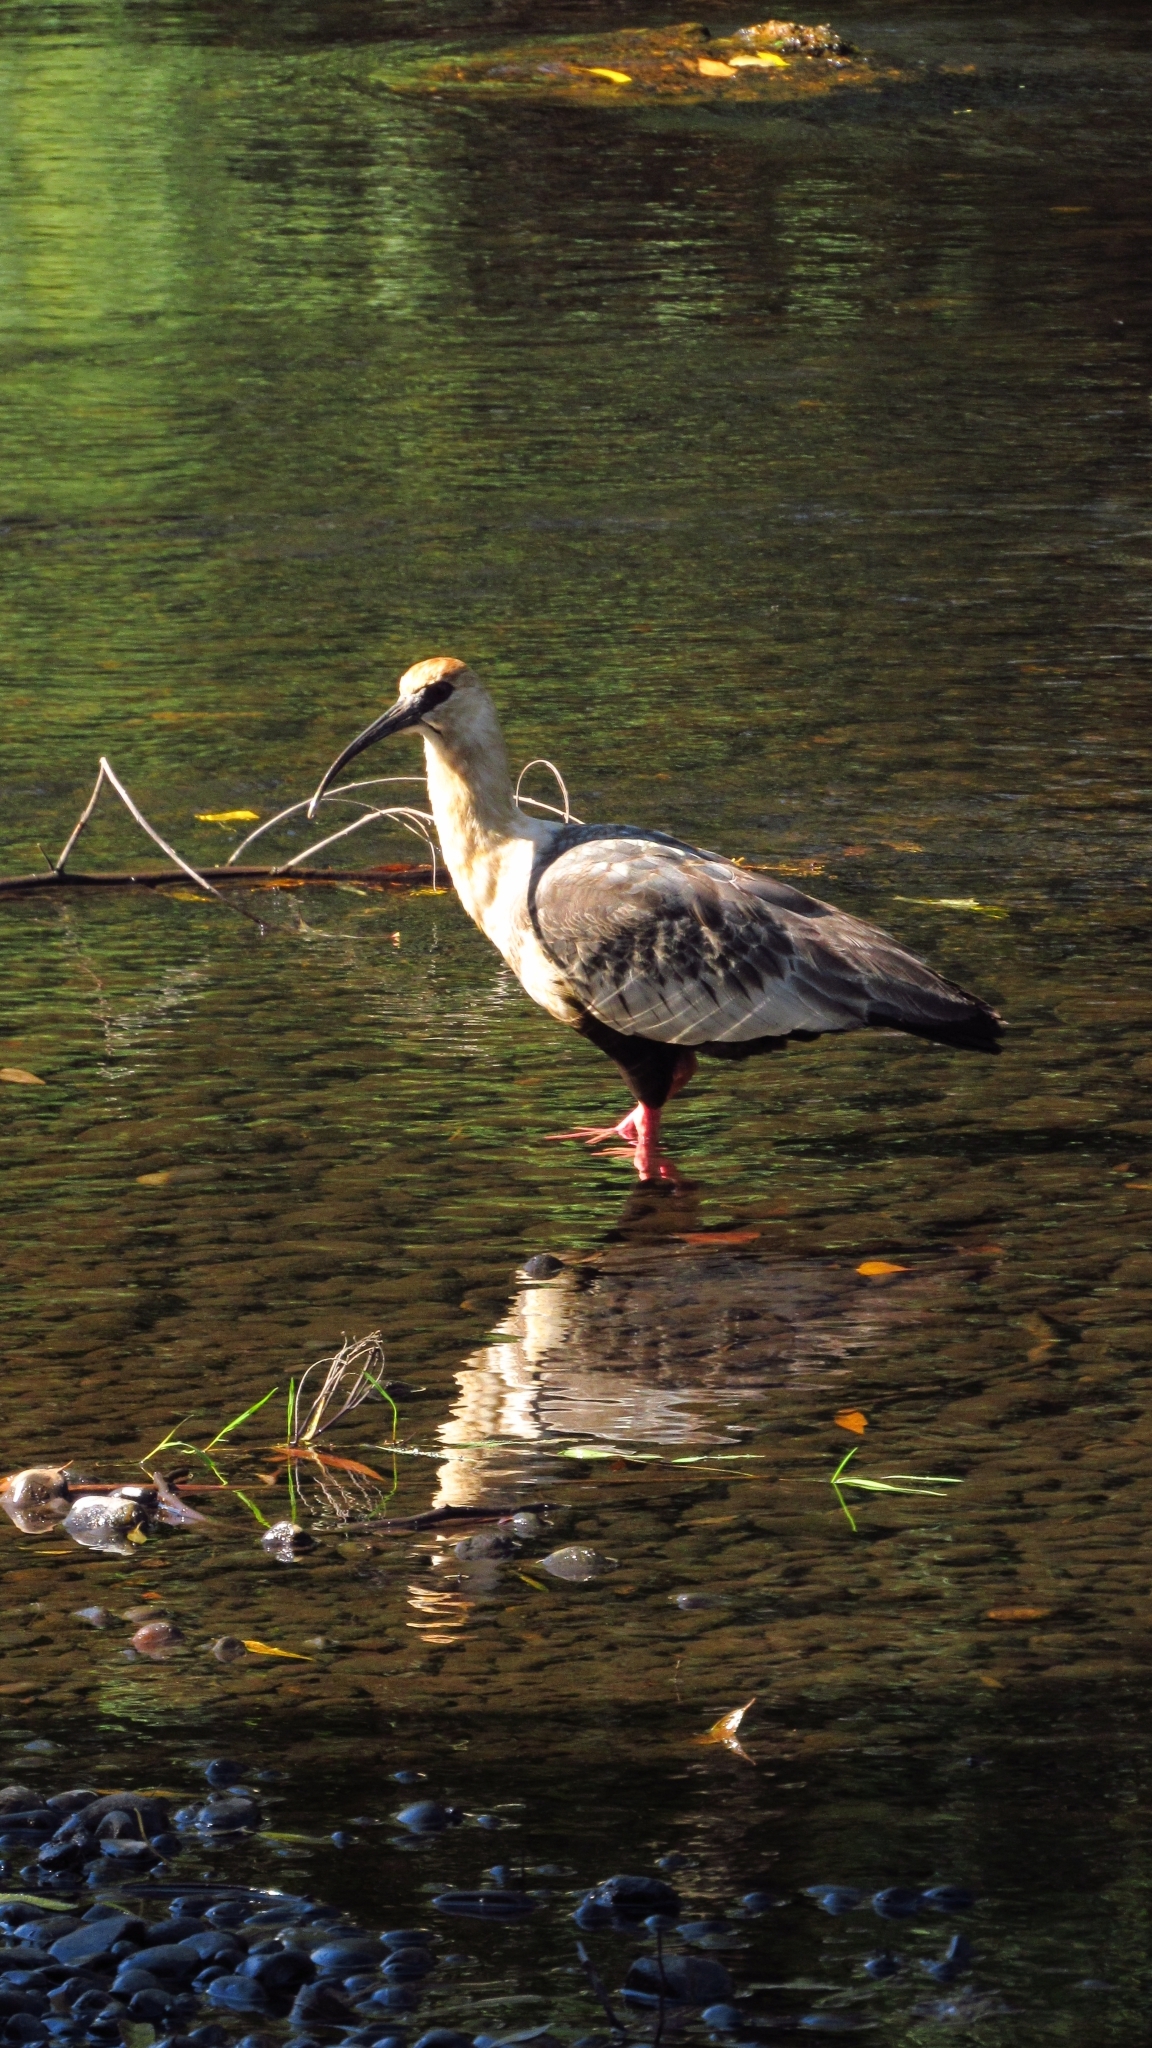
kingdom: Animalia
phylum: Chordata
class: Aves
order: Pelecaniformes
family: Threskiornithidae
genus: Theristicus
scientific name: Theristicus melanopis
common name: Black-faced ibis
